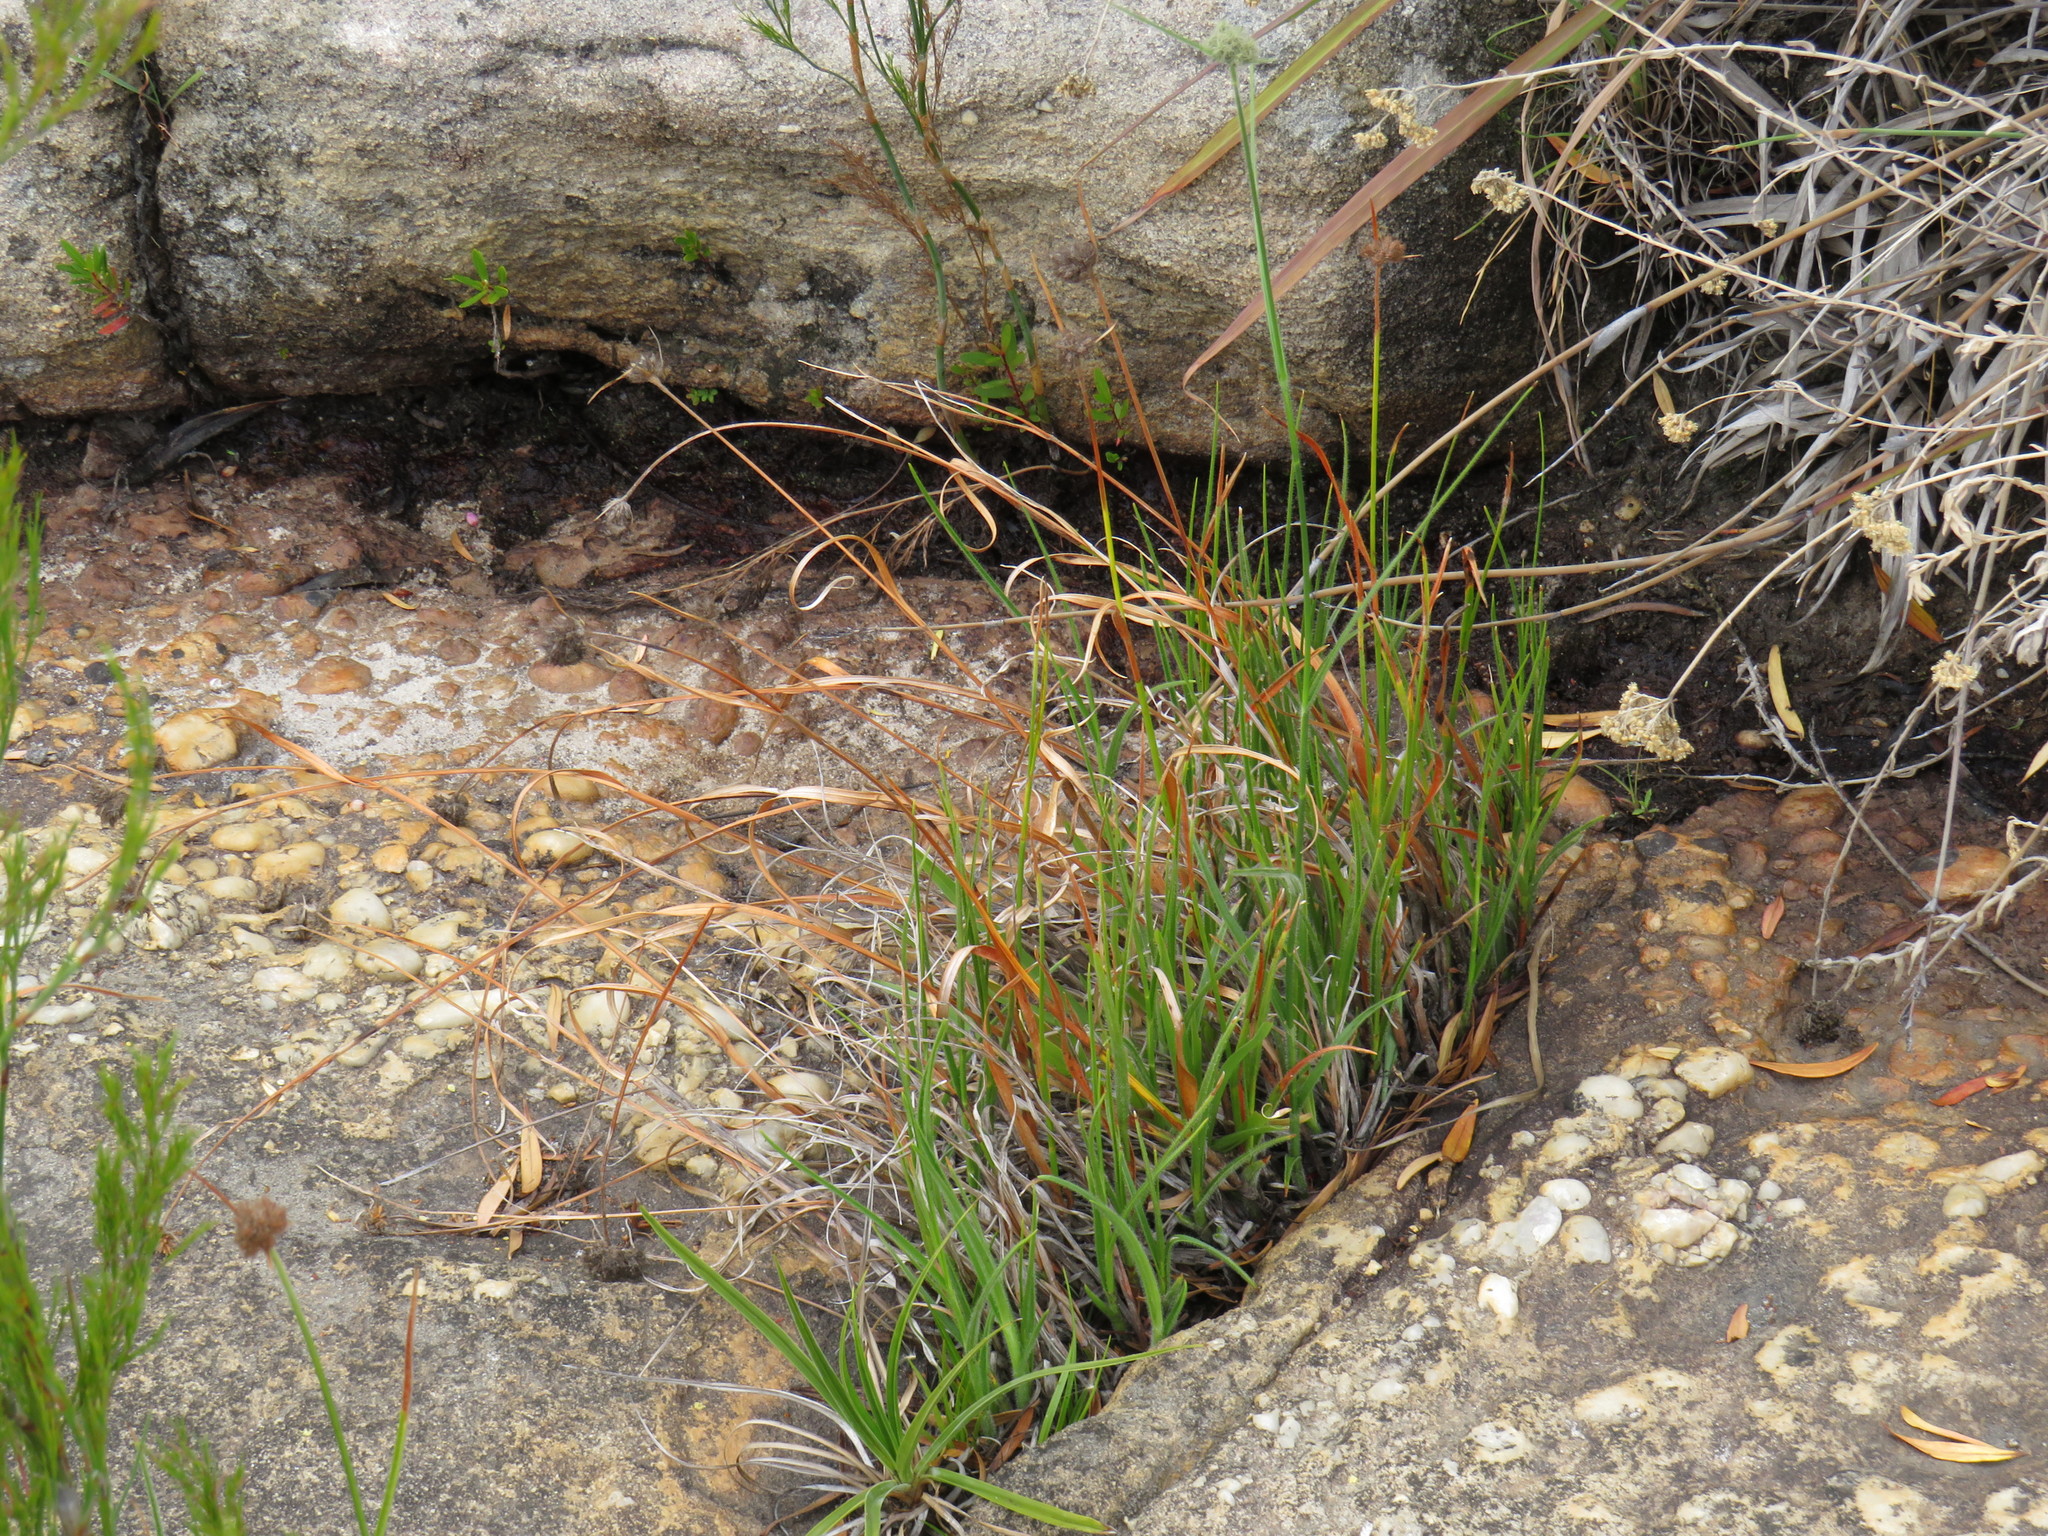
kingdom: Plantae
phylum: Tracheophyta
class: Liliopsida
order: Poales
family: Cyperaceae
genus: Fuirena
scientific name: Fuirena hirsuta
